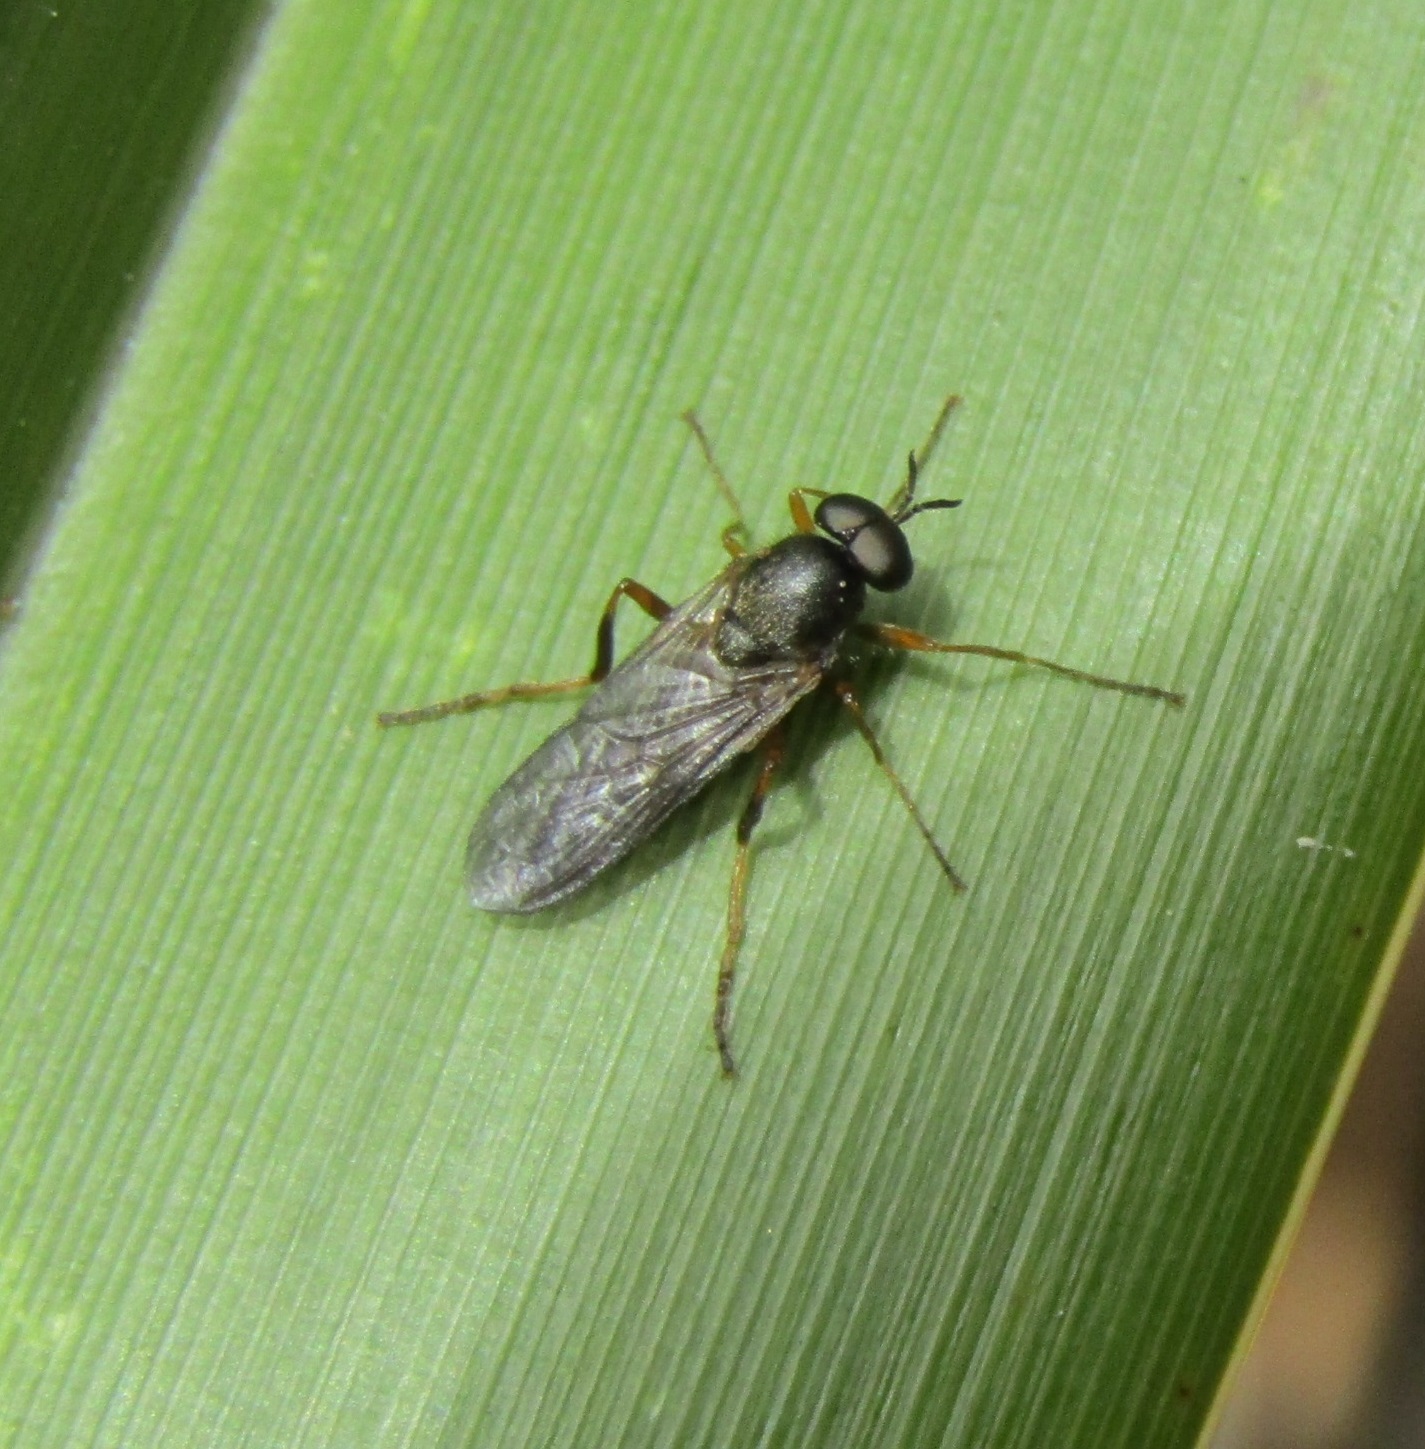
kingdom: Animalia
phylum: Arthropoda
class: Insecta
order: Diptera
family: Stratiomyidae
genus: Inopus
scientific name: Inopus rubriceps
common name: Soldier fly
